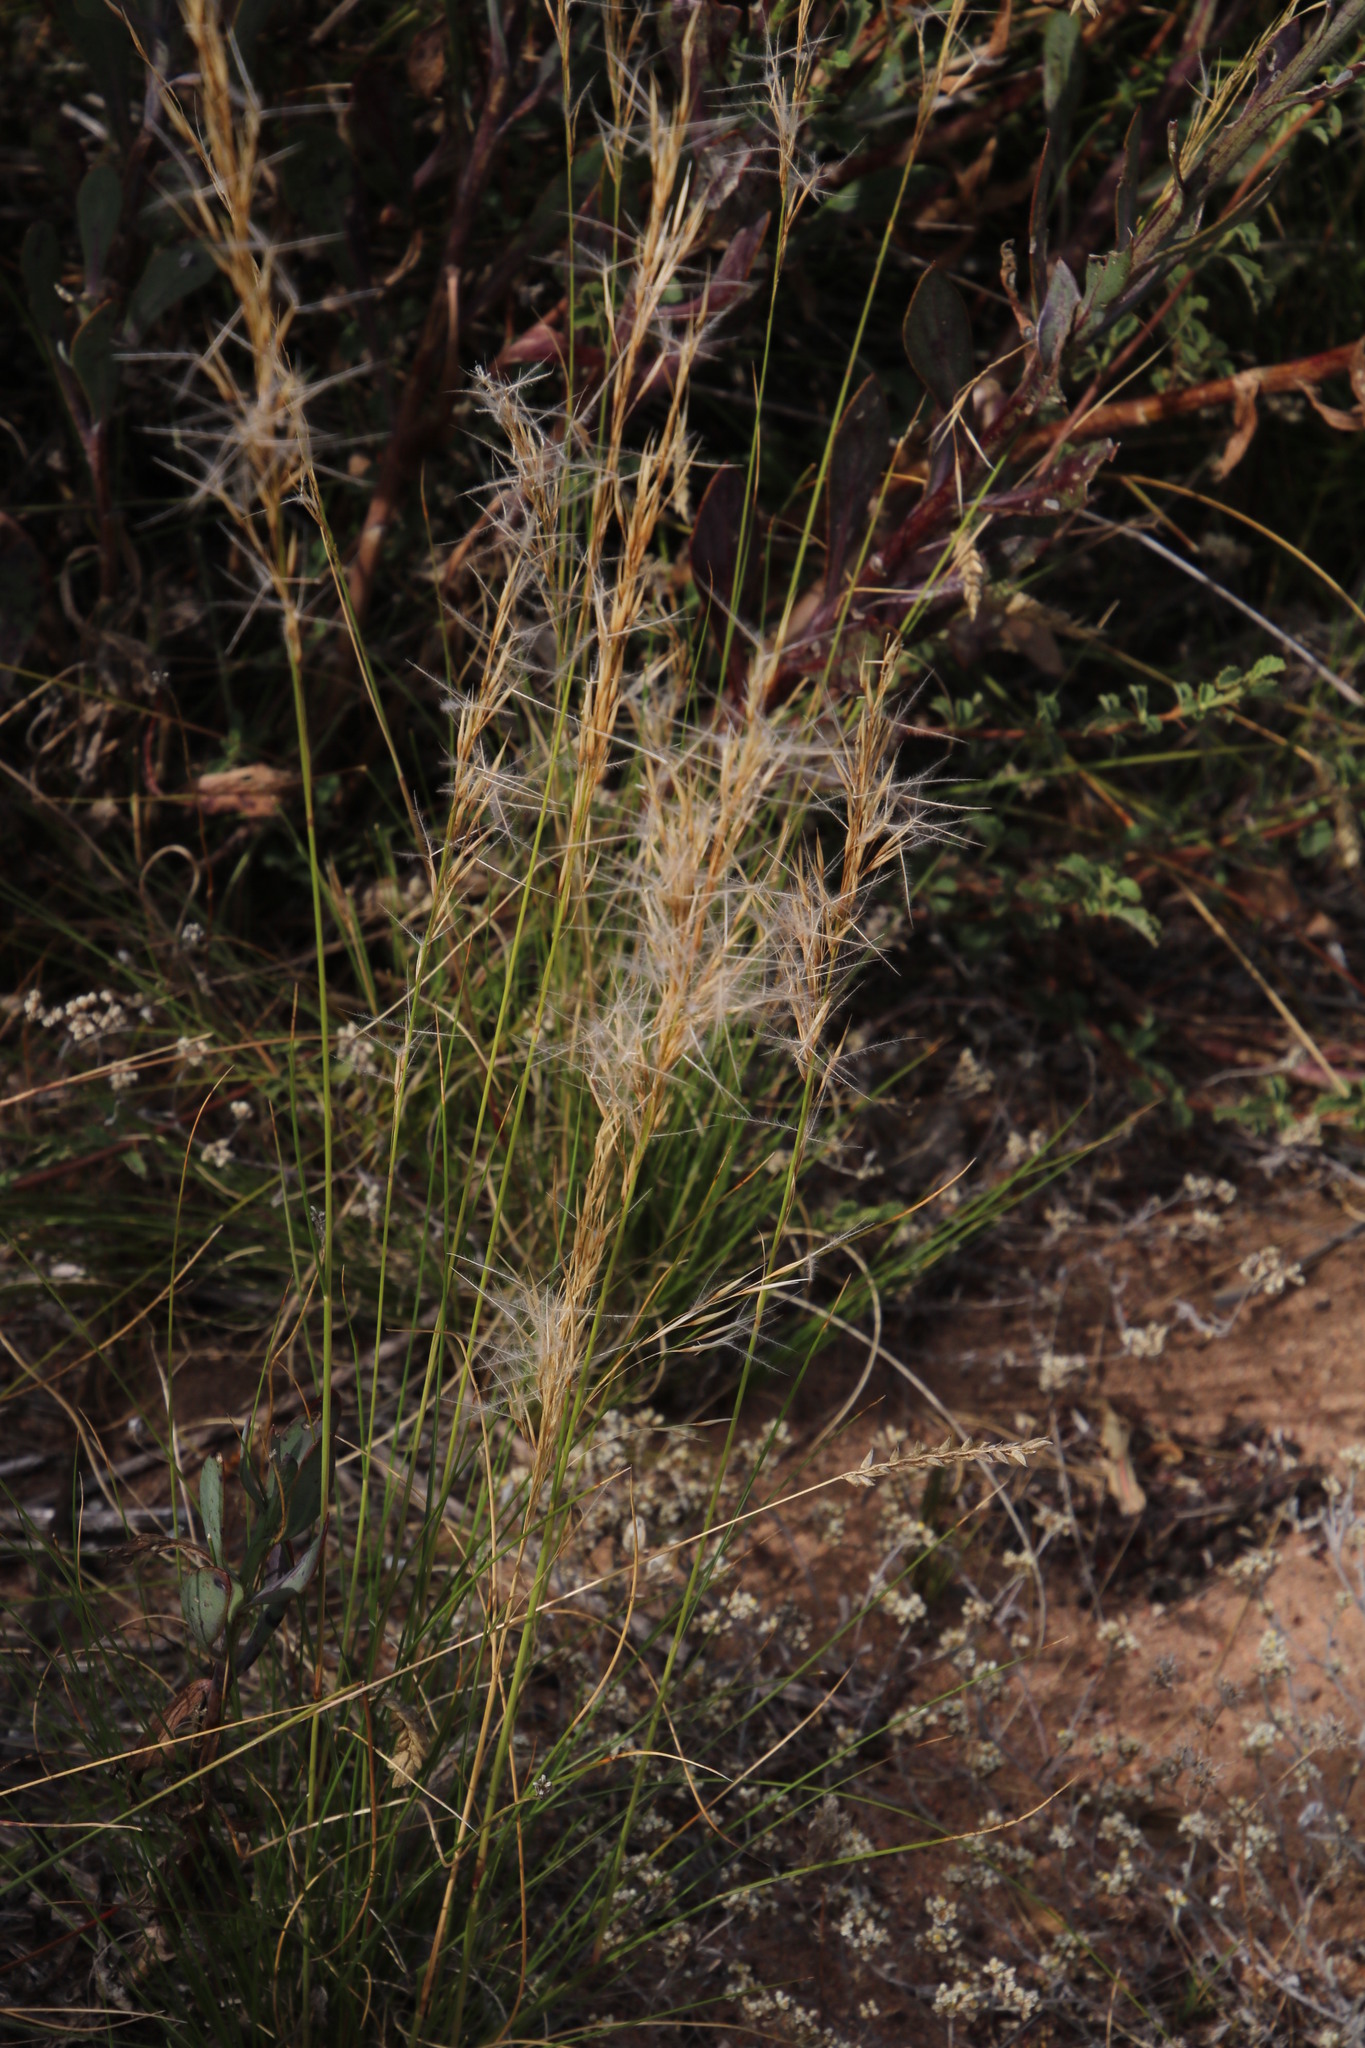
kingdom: Plantae
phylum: Tracheophyta
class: Liliopsida
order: Poales
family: Poaceae
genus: Stipagrostis
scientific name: Stipagrostis zeyheri
